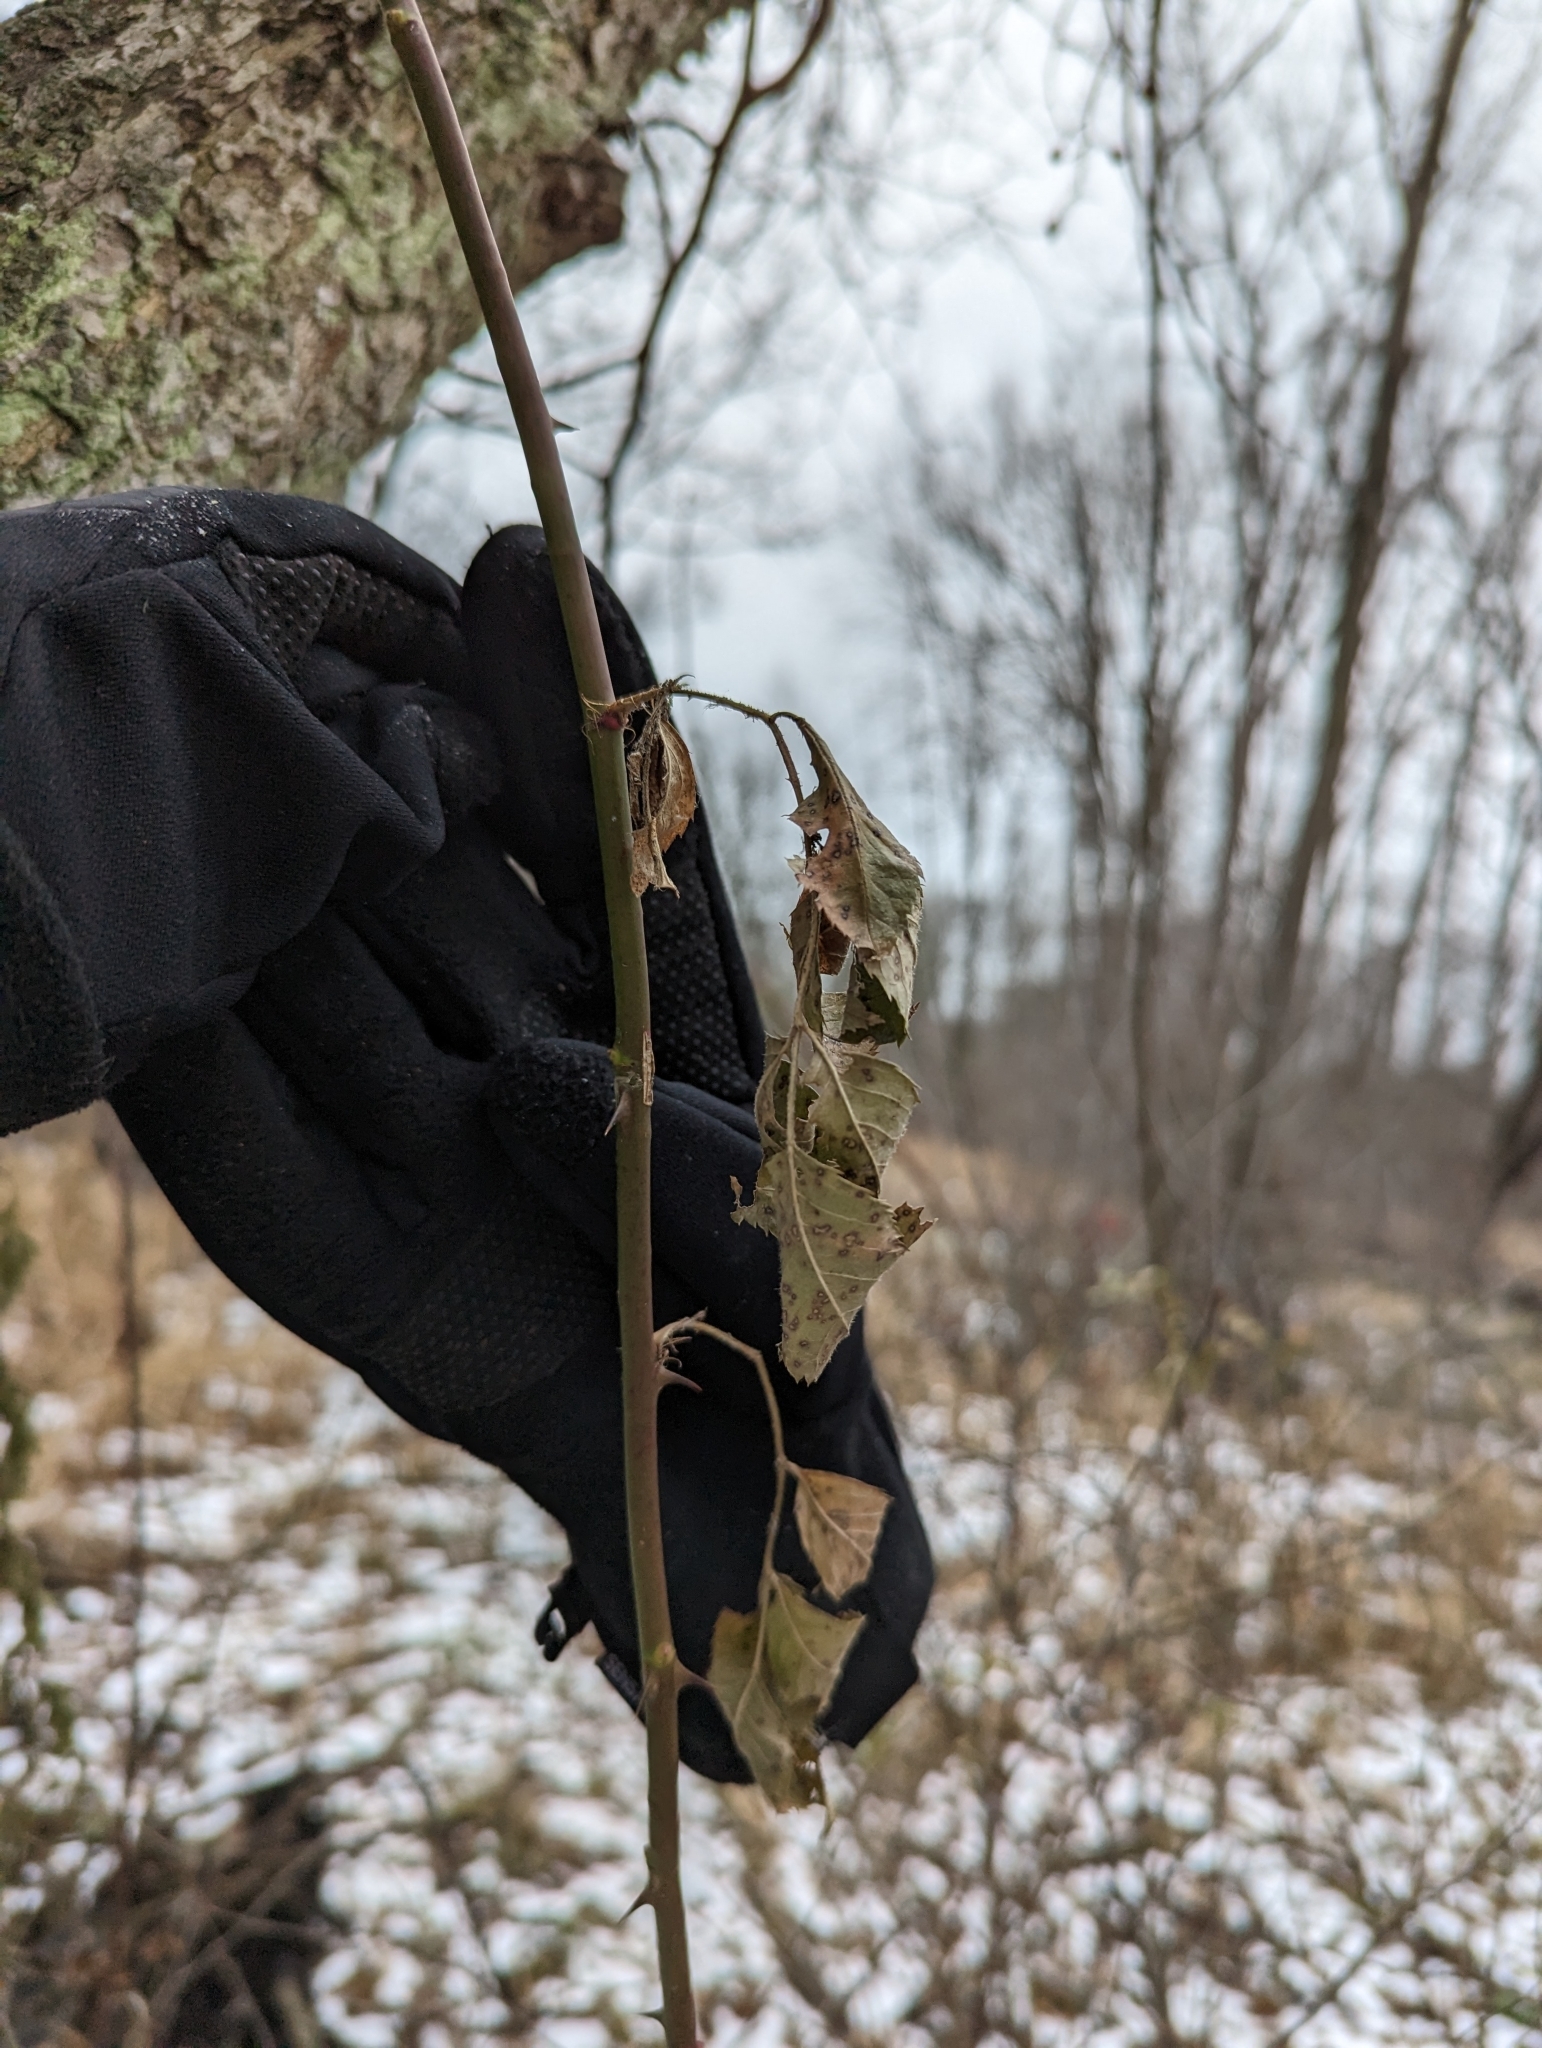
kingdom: Plantae
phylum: Tracheophyta
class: Magnoliopsida
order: Rosales
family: Rosaceae
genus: Rosa
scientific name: Rosa multiflora
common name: Multiflora rose
